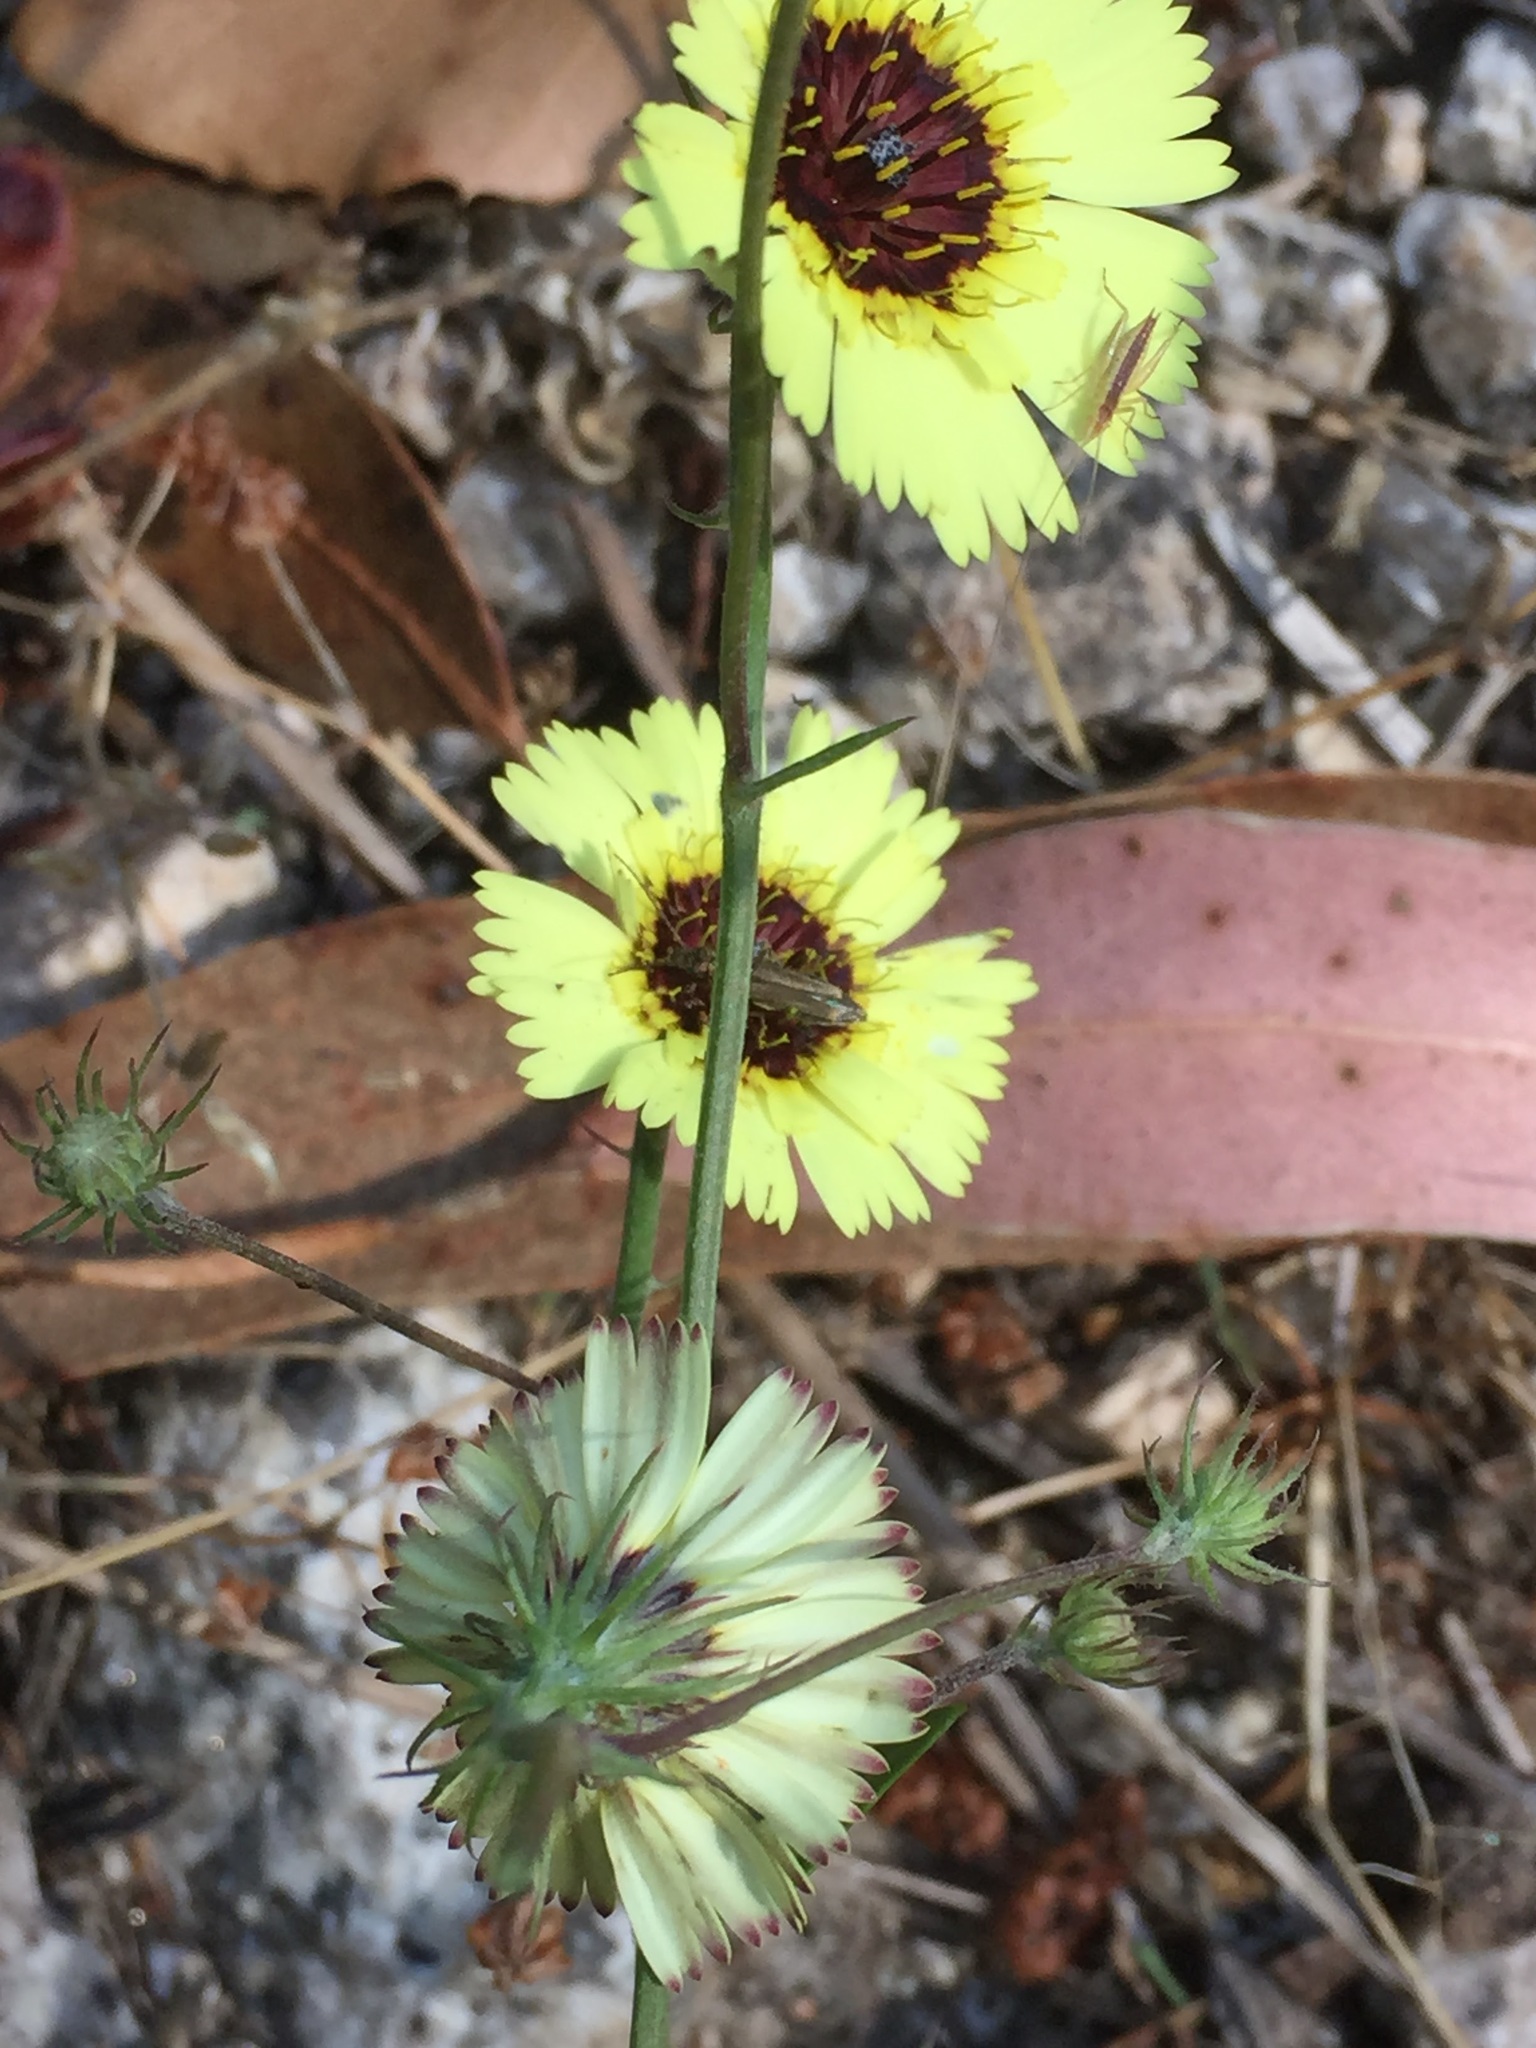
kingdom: Plantae
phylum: Tracheophyta
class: Magnoliopsida
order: Asterales
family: Asteraceae
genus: Tolpis
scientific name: Tolpis barbata
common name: Yellow hawkweed
